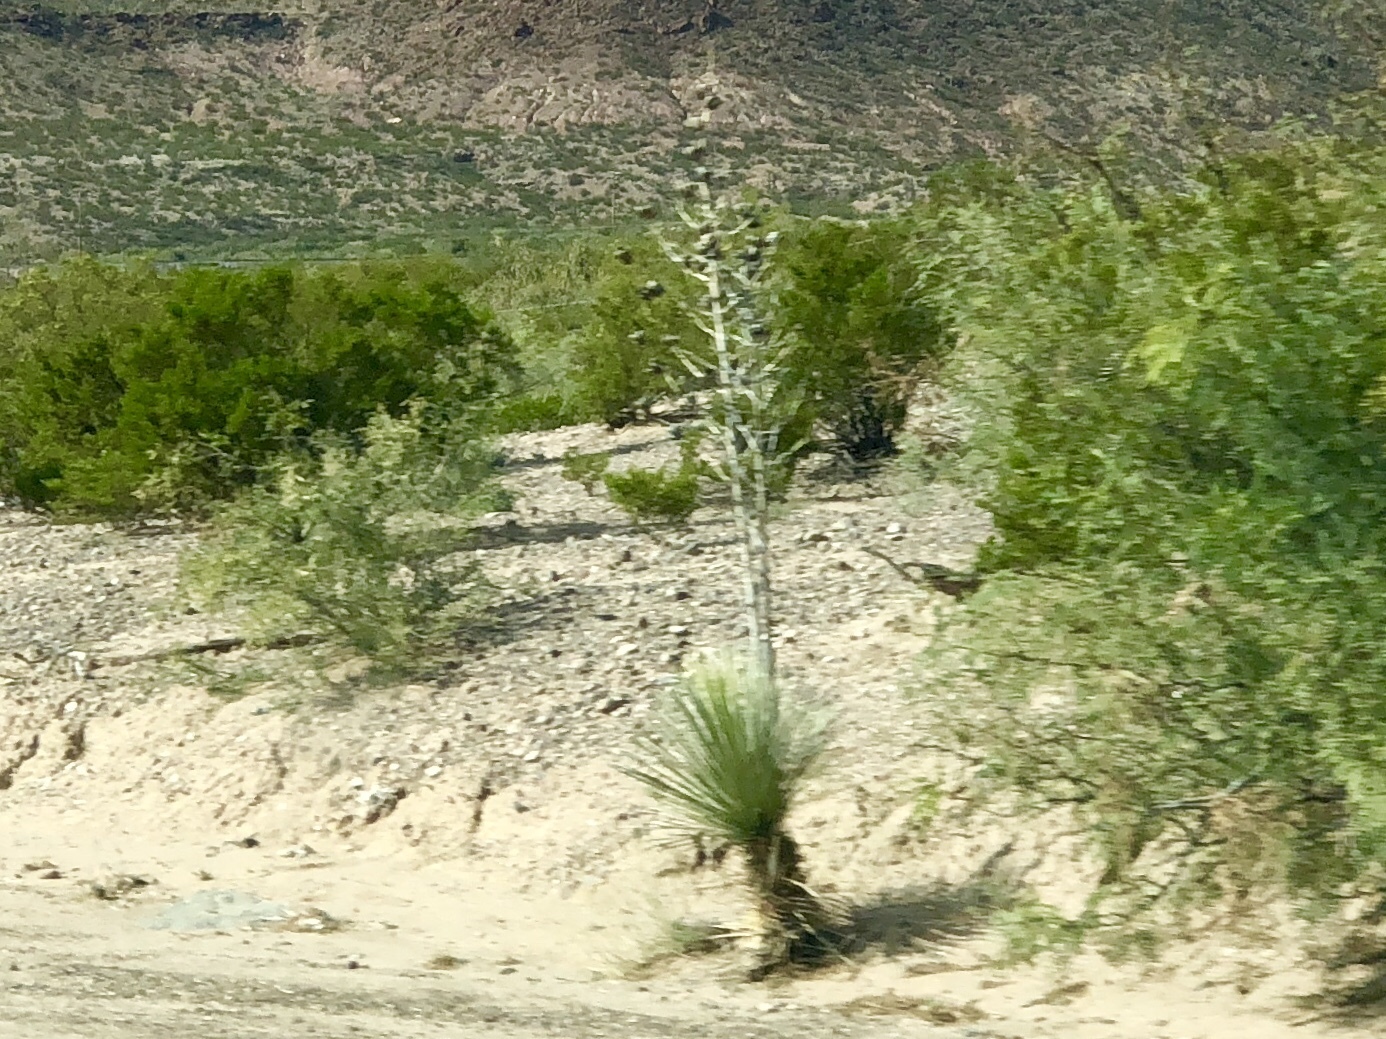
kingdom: Plantae
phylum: Tracheophyta
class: Liliopsida
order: Asparagales
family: Asparagaceae
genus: Yucca
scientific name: Yucca elata
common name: Palmella
